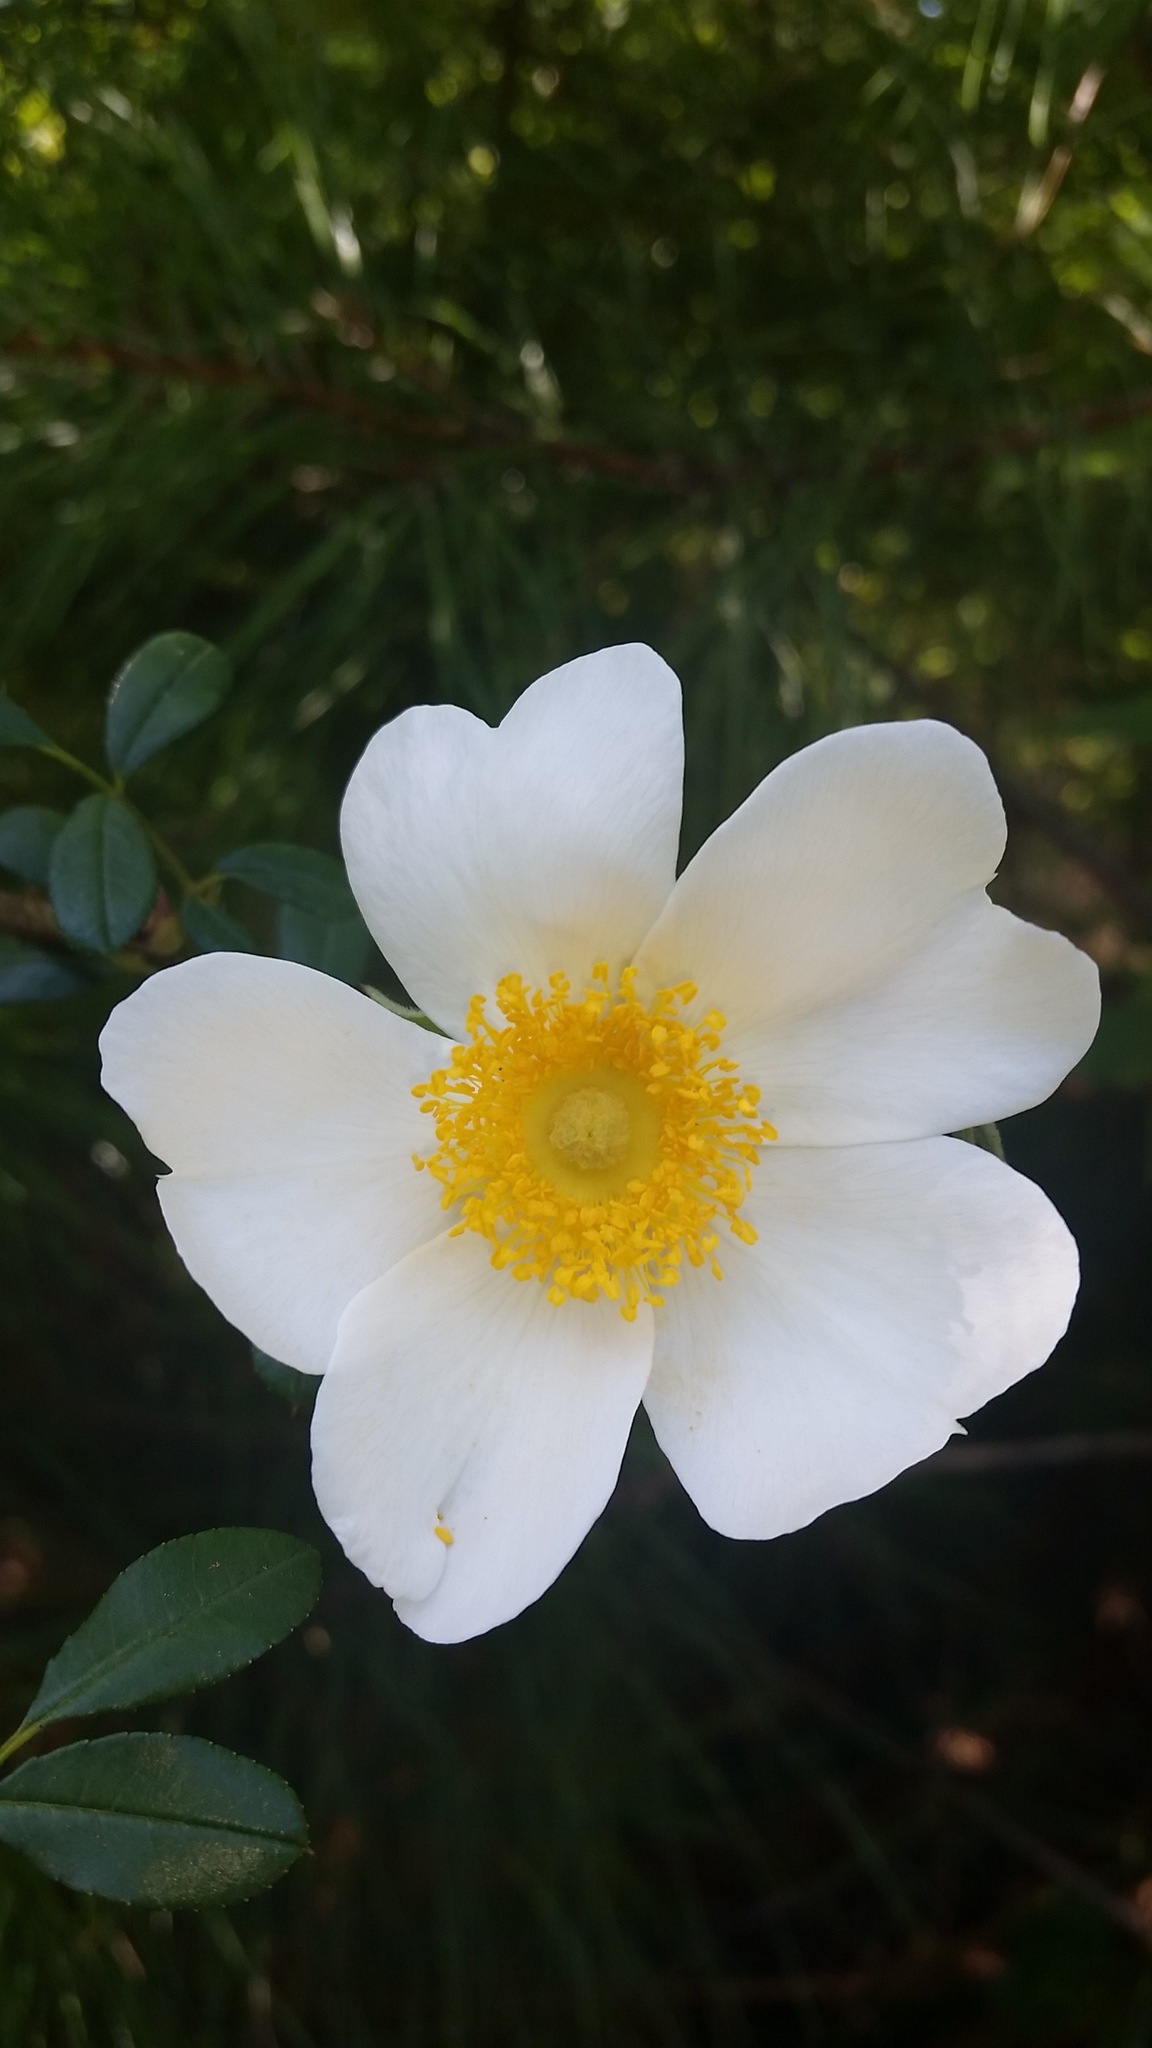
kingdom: Plantae
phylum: Tracheophyta
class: Magnoliopsida
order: Rosales
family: Rosaceae
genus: Rosa
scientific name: Rosa bracteata
